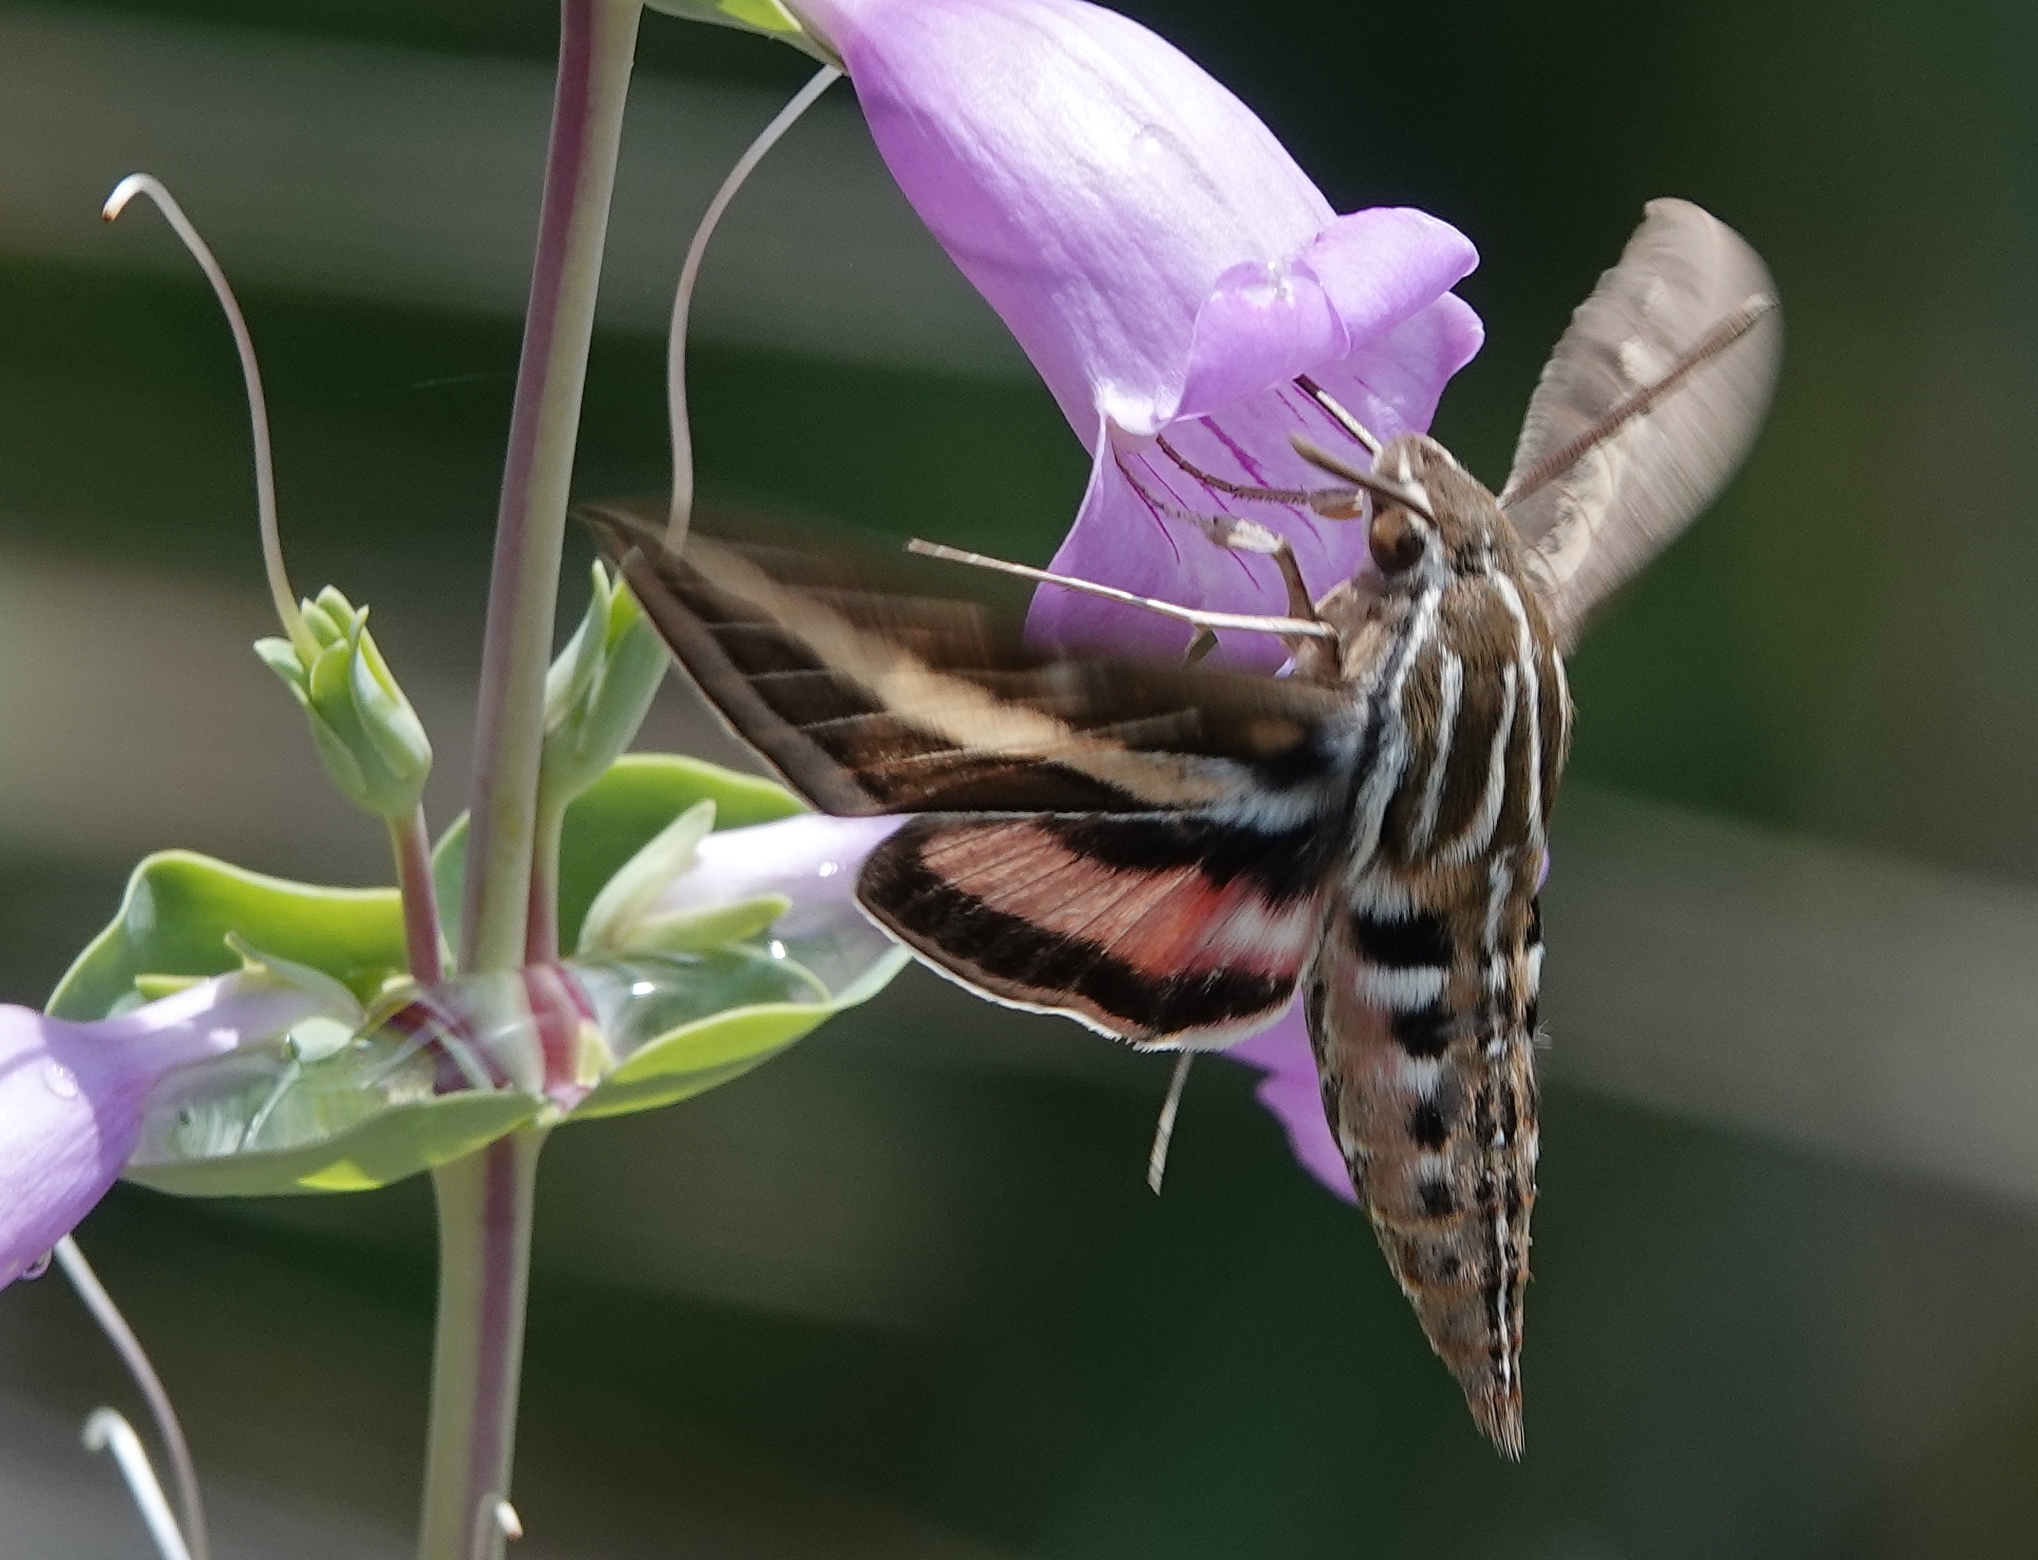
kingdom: Animalia
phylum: Arthropoda
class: Insecta
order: Lepidoptera
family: Sphingidae
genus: Hyles
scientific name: Hyles lineata
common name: White-lined sphinx
